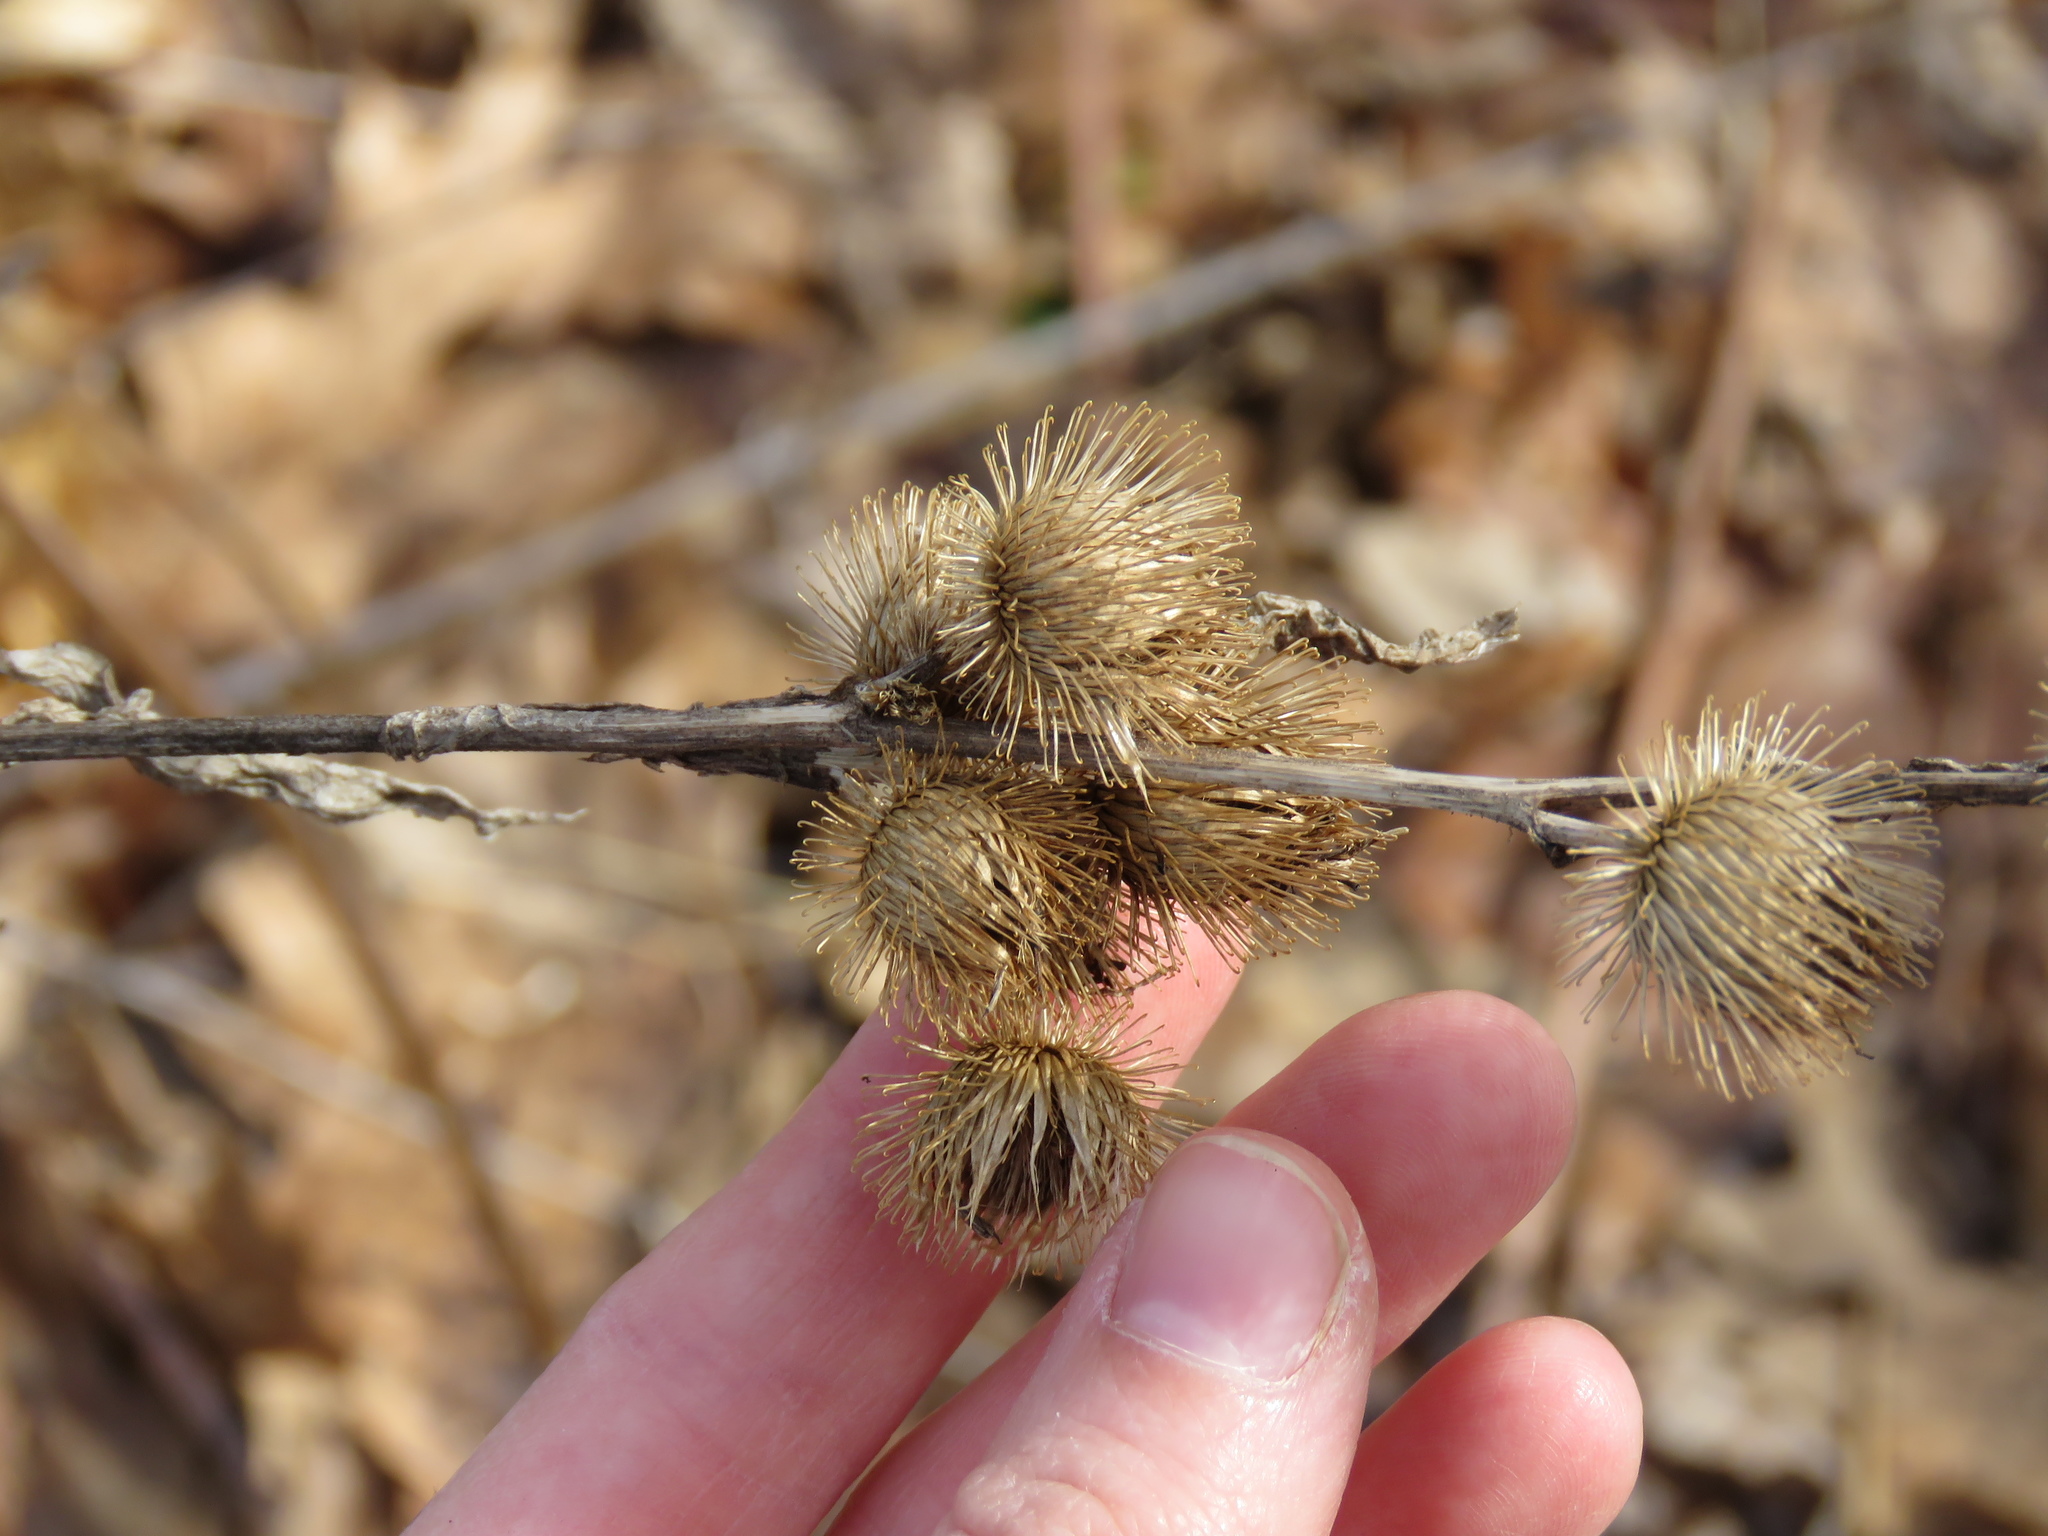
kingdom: Plantae
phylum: Tracheophyta
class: Magnoliopsida
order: Asterales
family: Asteraceae
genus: Arctium
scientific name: Arctium minus
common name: Lesser burdock
